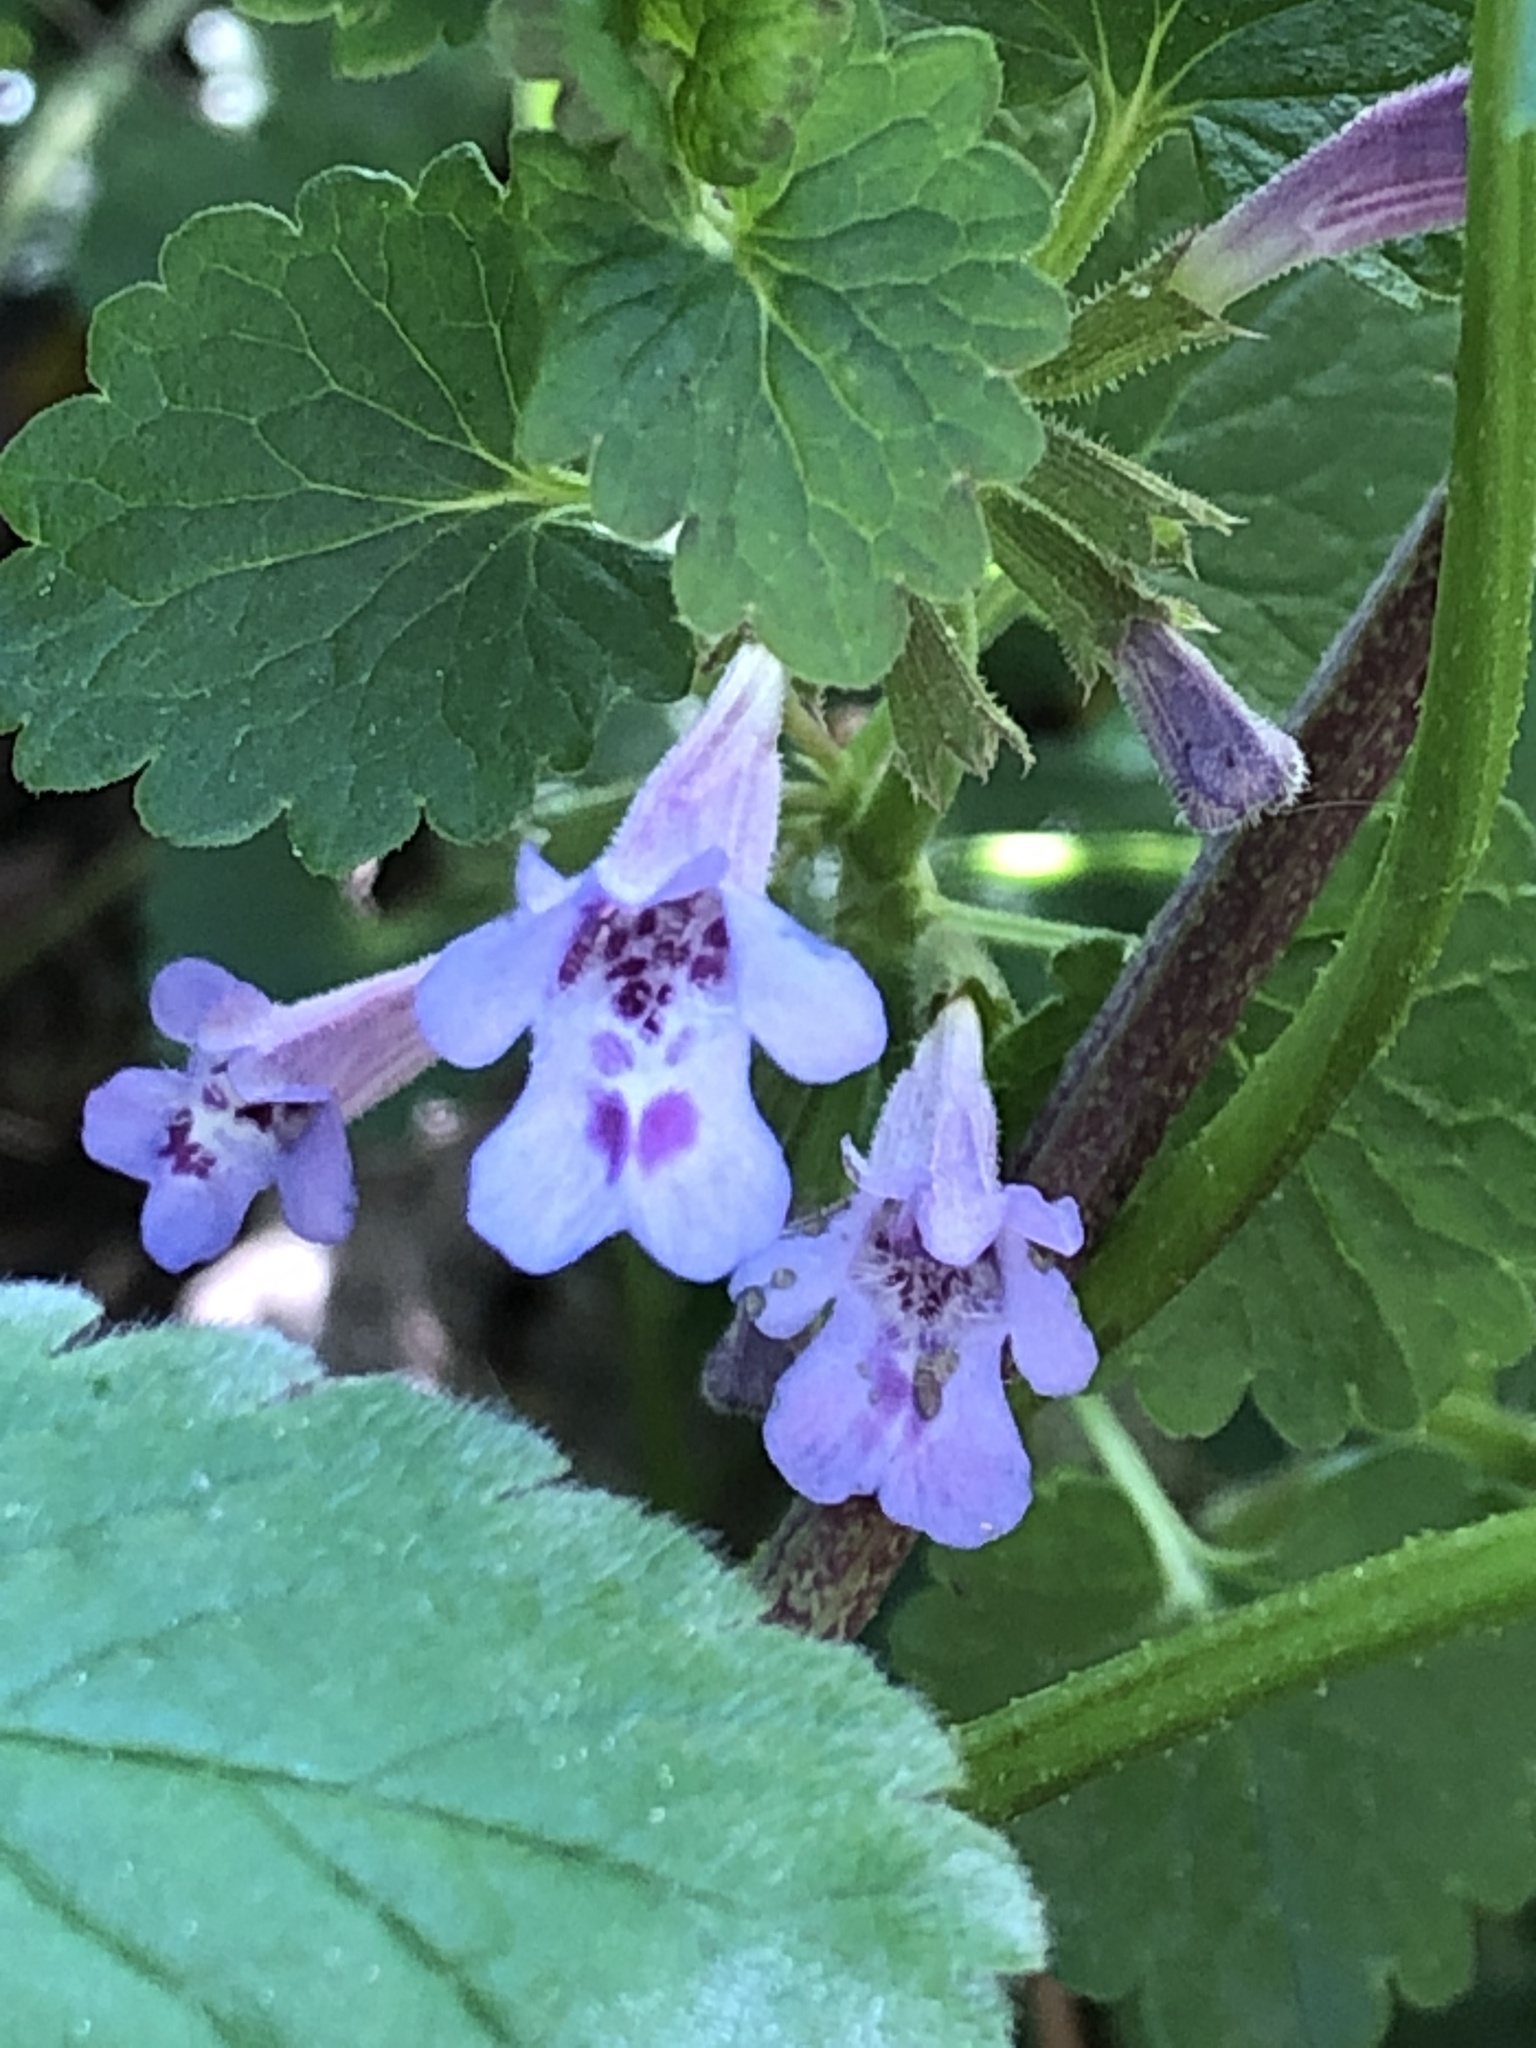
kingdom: Plantae
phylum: Tracheophyta
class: Magnoliopsida
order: Lamiales
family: Lamiaceae
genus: Glechoma
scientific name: Glechoma hederacea
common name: Ground ivy
